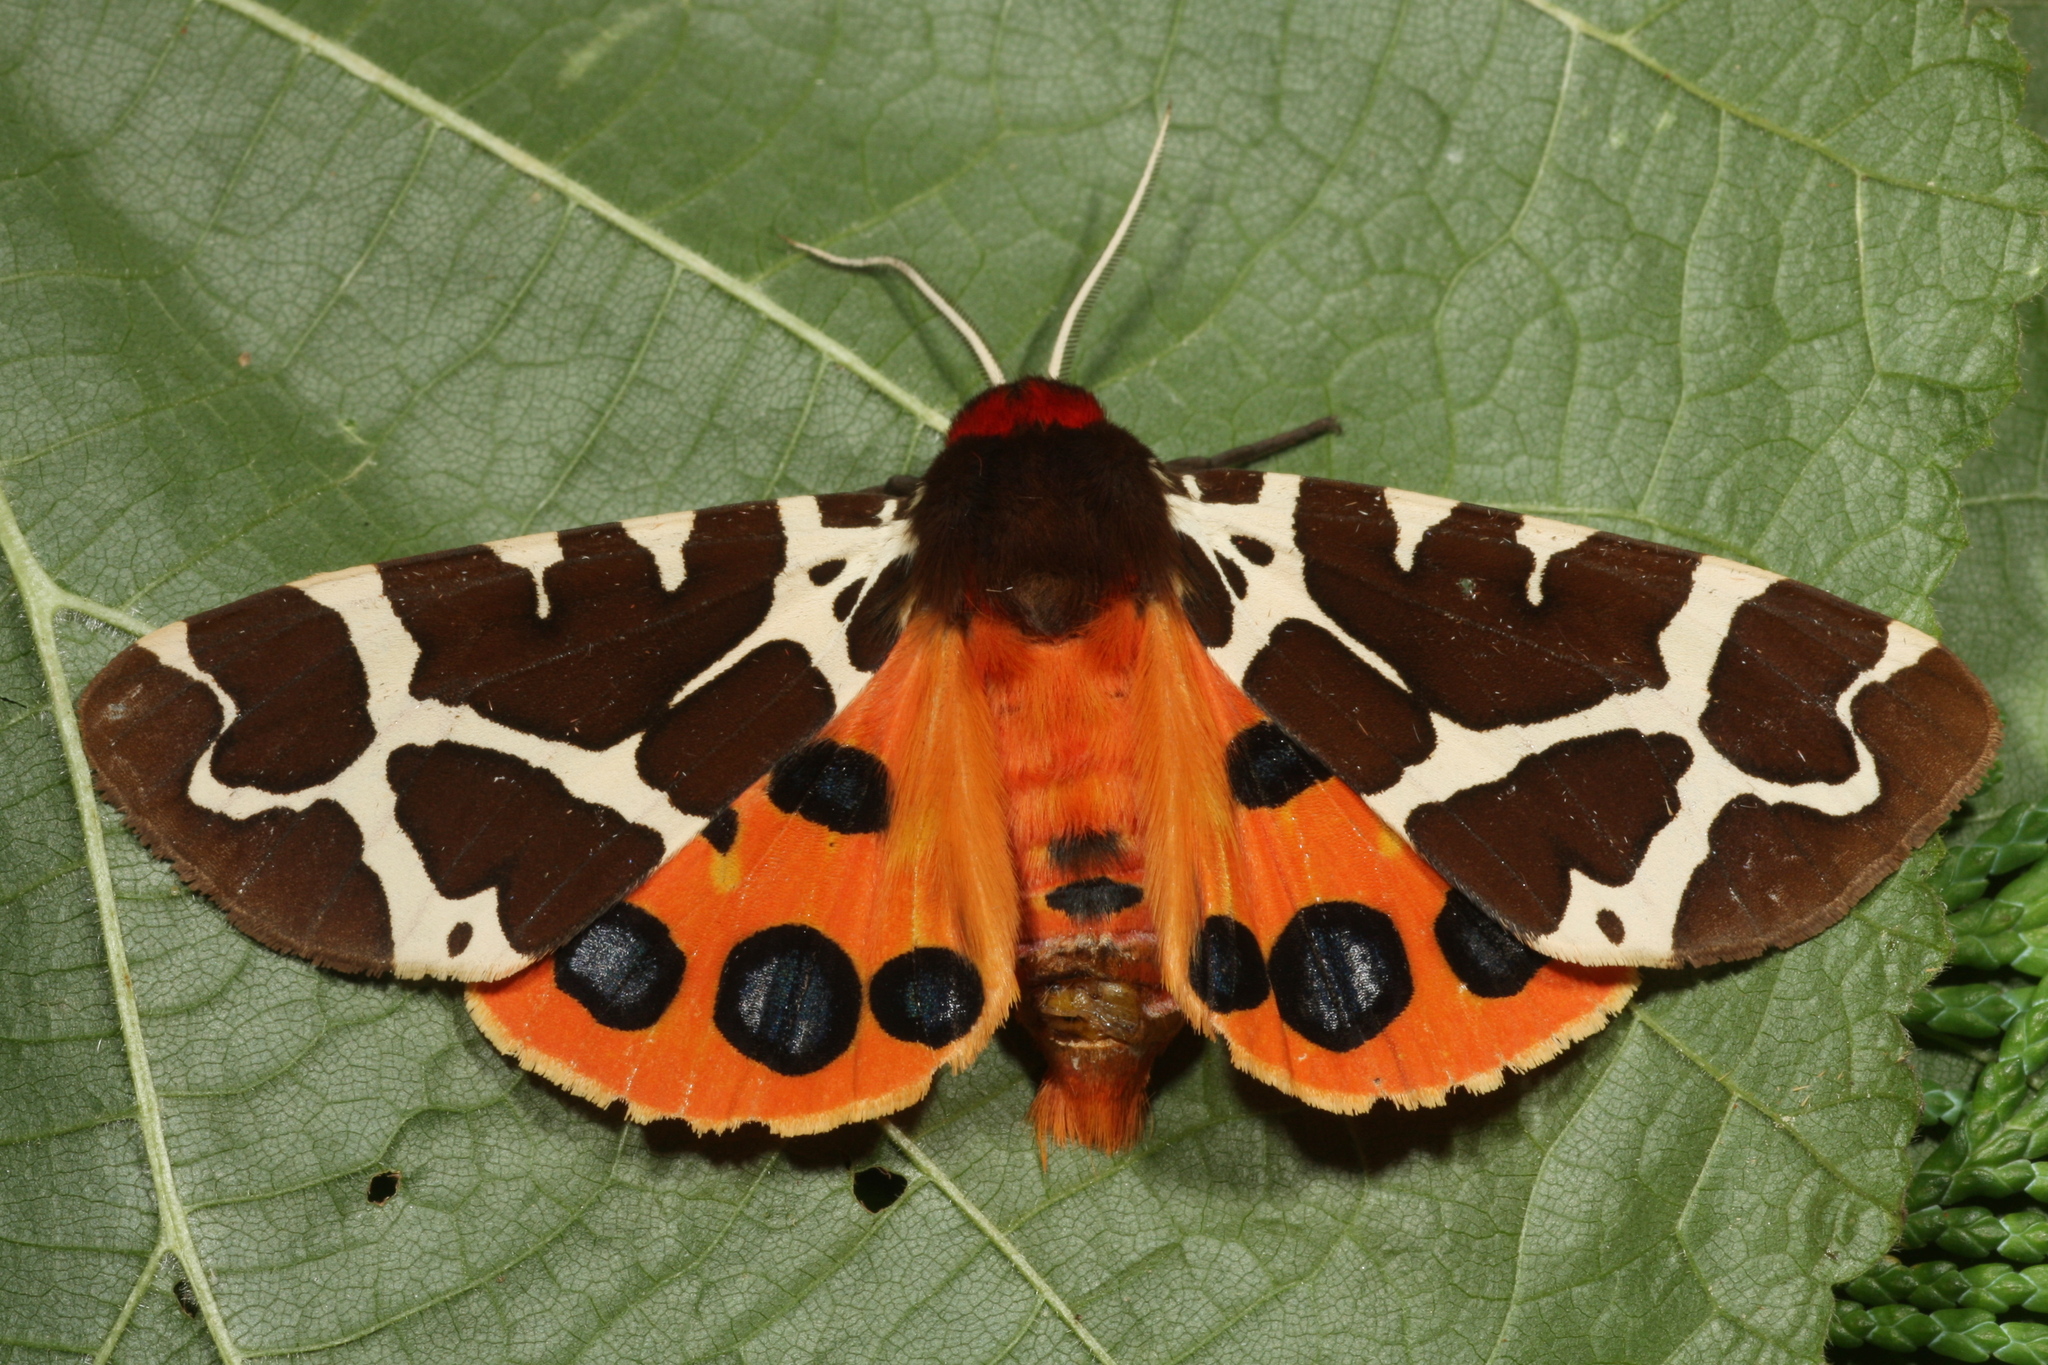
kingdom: Animalia
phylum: Arthropoda
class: Insecta
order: Lepidoptera
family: Erebidae
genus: Arctia
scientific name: Arctia caja
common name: Garden tiger
